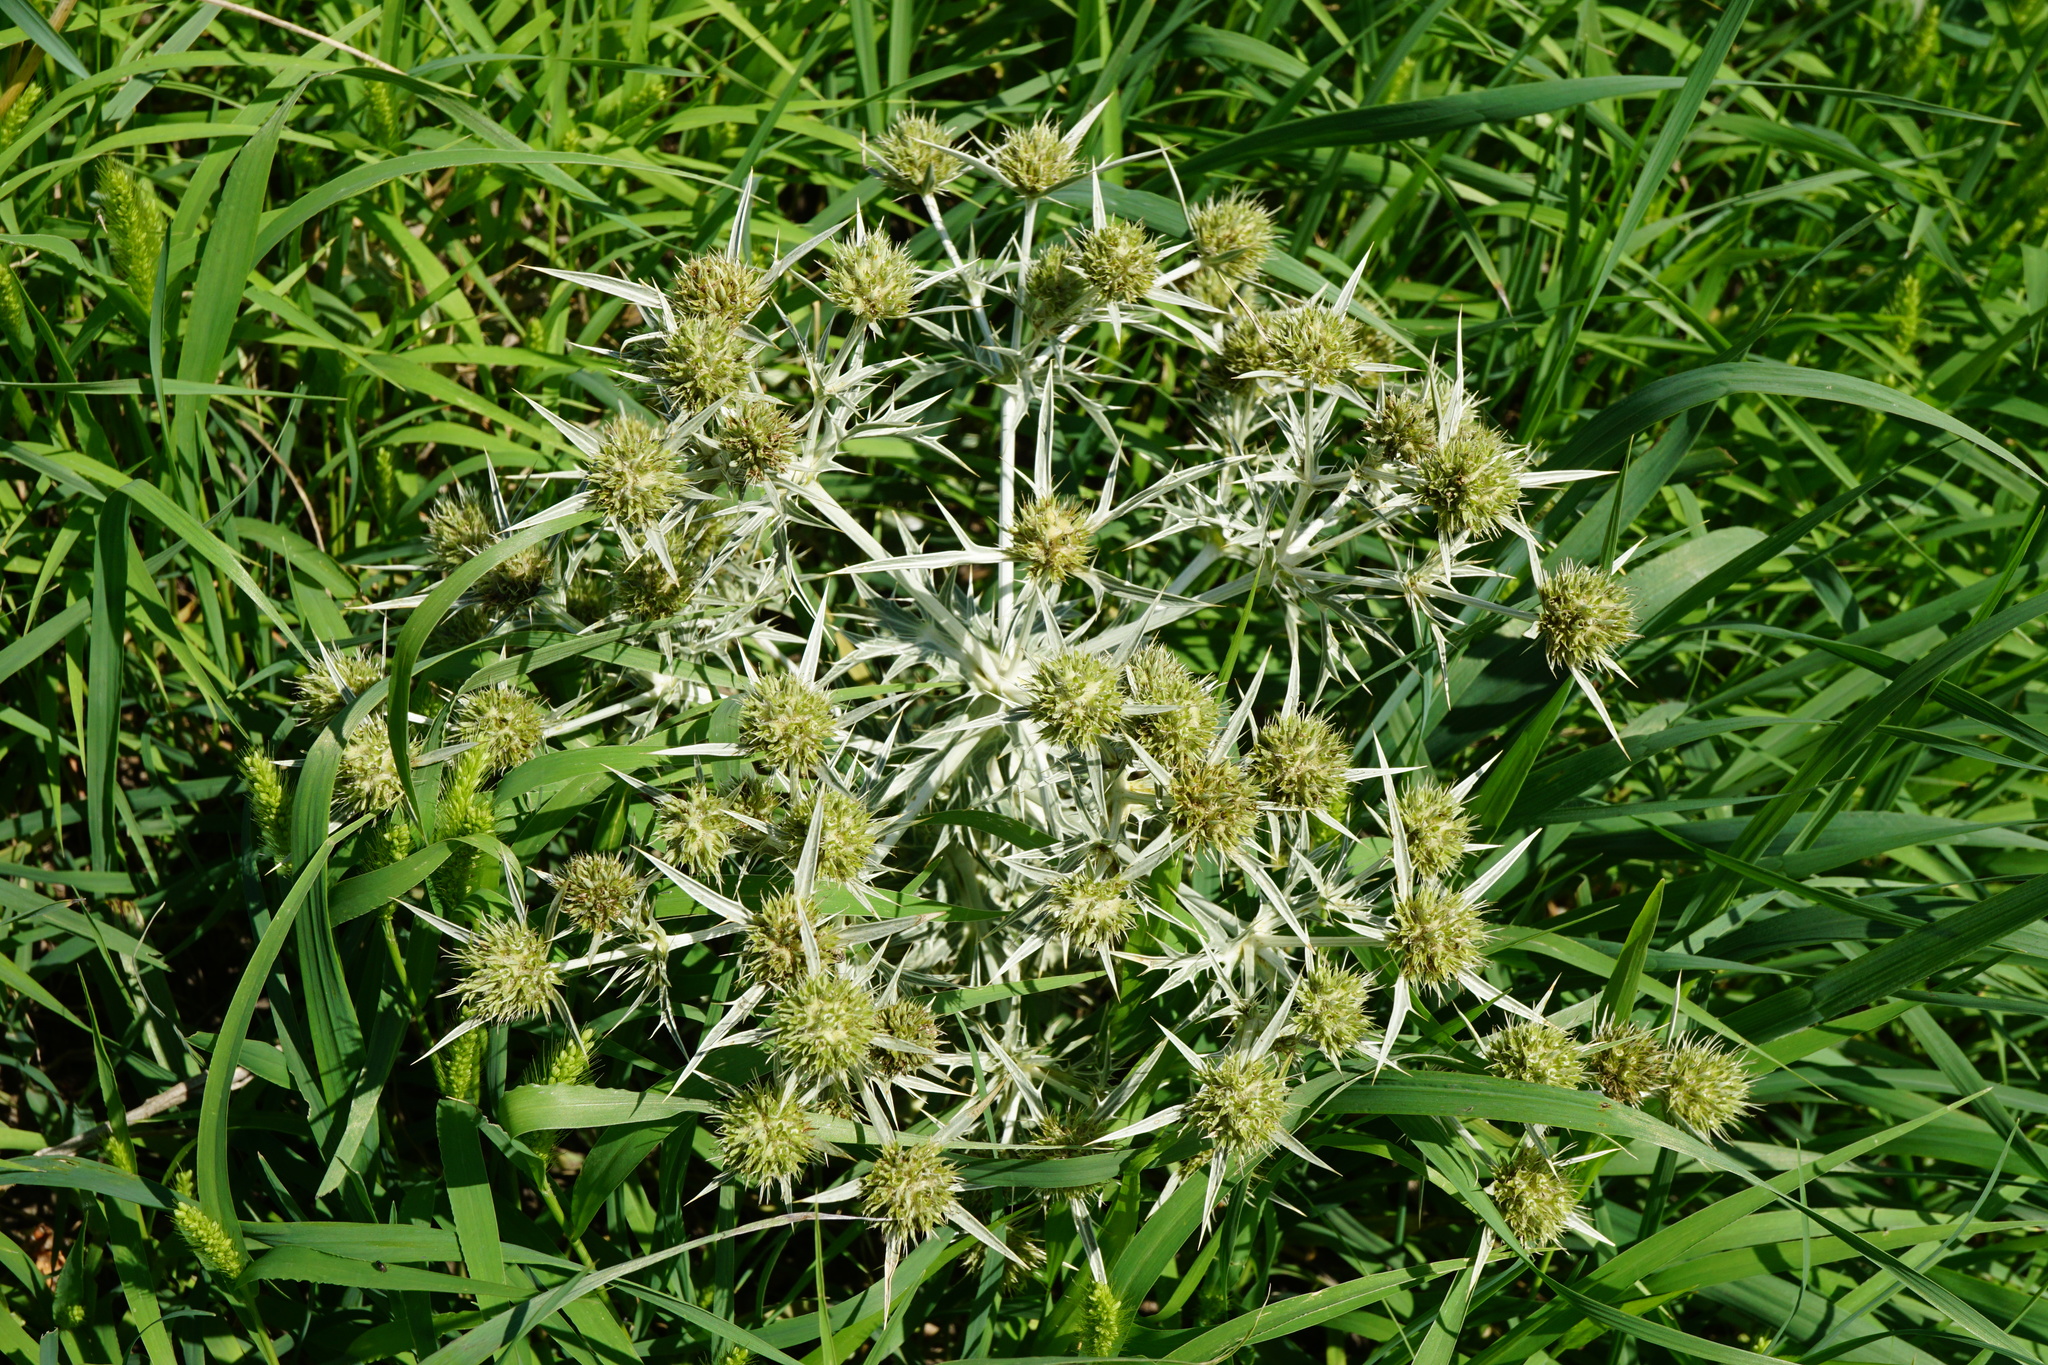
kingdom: Plantae
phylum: Tracheophyta
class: Magnoliopsida
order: Apiales
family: Apiaceae
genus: Eryngium
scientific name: Eryngium campestre
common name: Field eryngo
